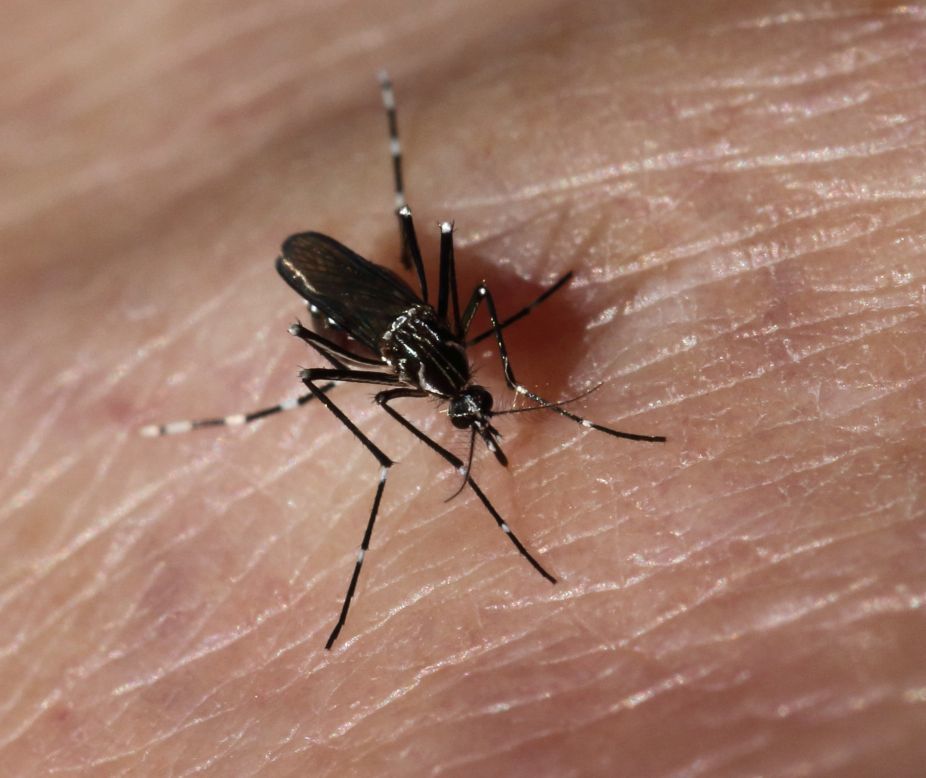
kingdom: Animalia
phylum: Arthropoda
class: Insecta
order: Diptera
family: Culicidae
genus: Aedes
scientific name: Aedes aegypti
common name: Yellow fever mosquito
